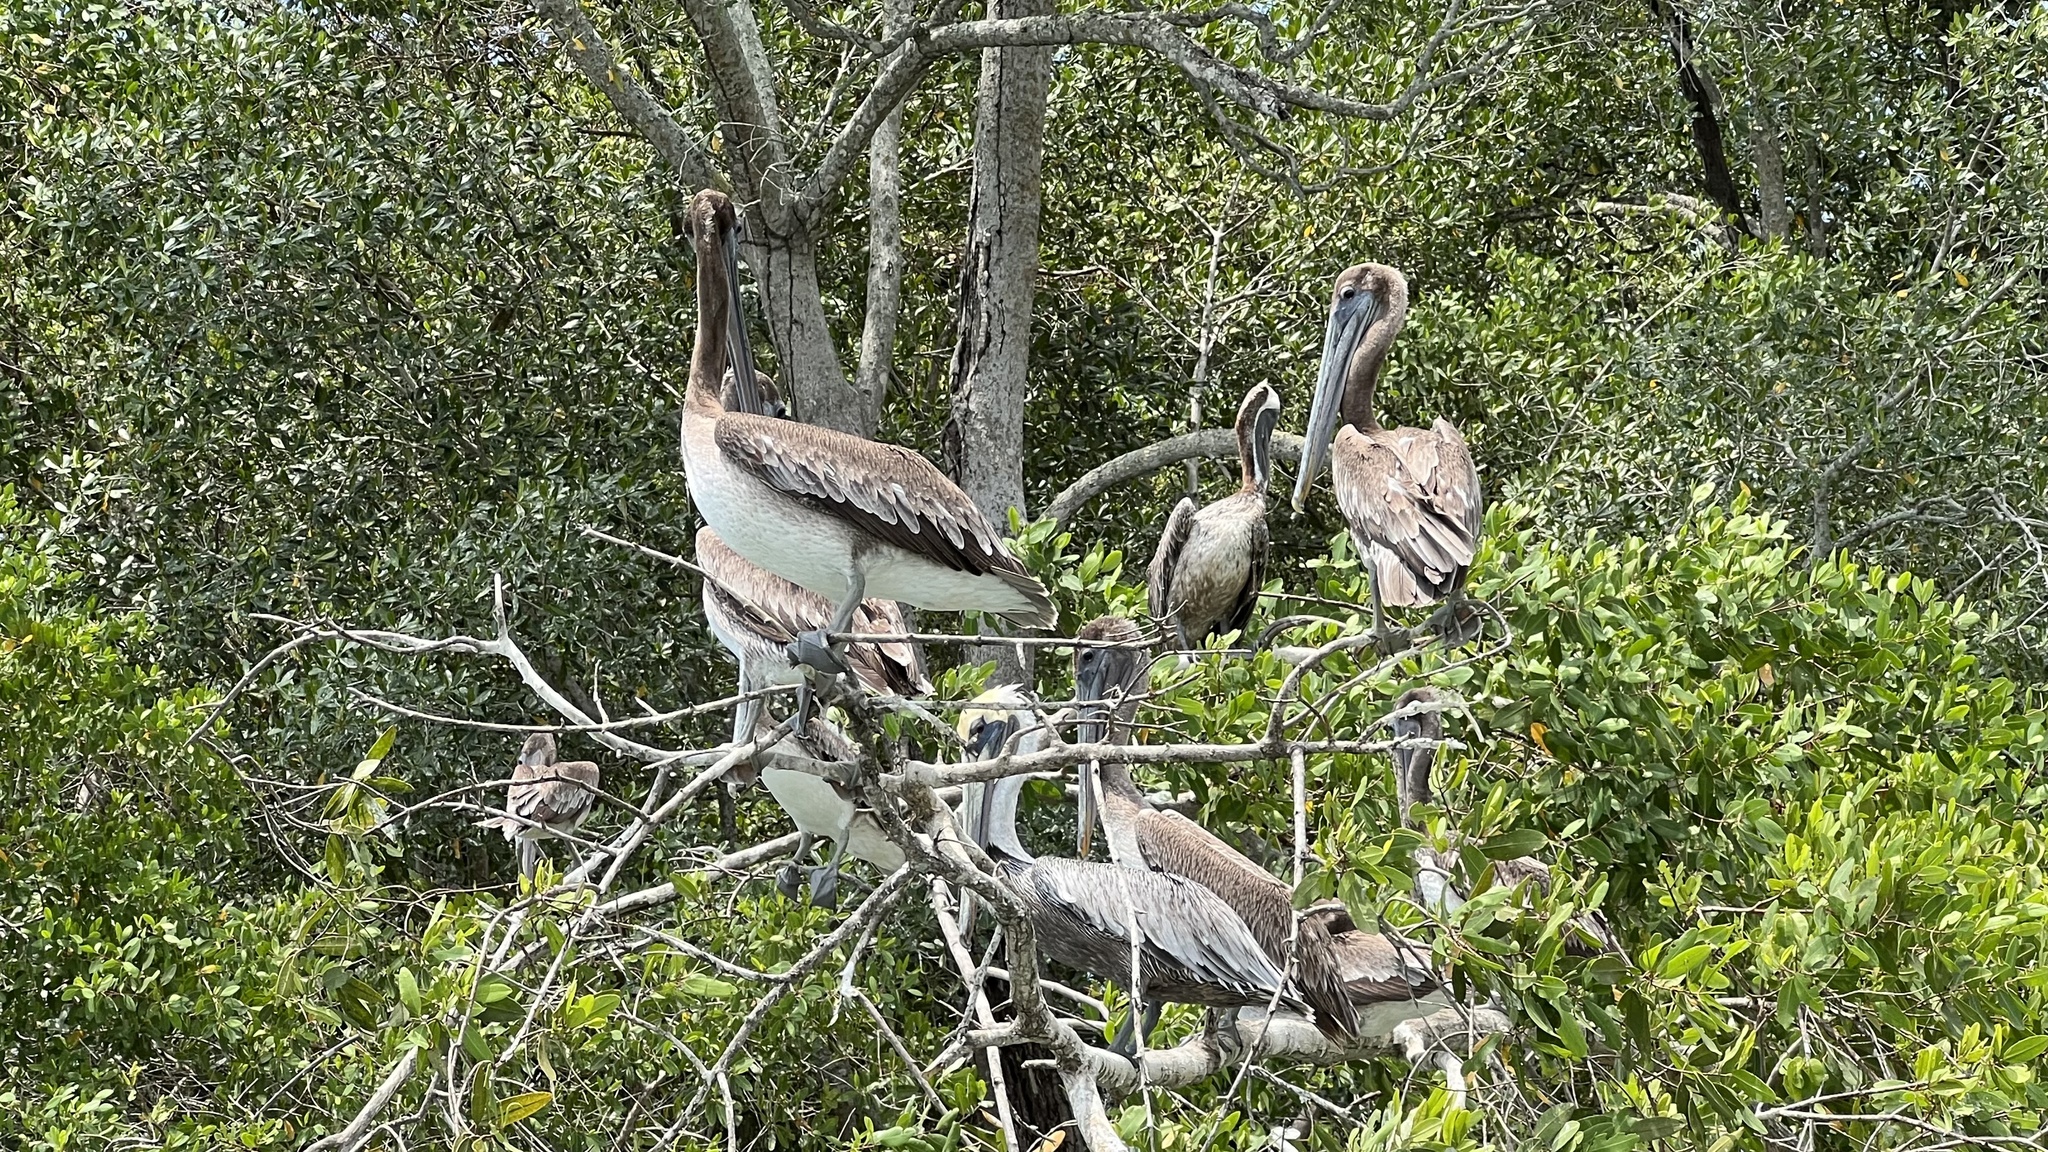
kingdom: Animalia
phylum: Chordata
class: Aves
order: Pelecaniformes
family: Pelecanidae
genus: Pelecanus
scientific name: Pelecanus occidentalis
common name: Brown pelican
